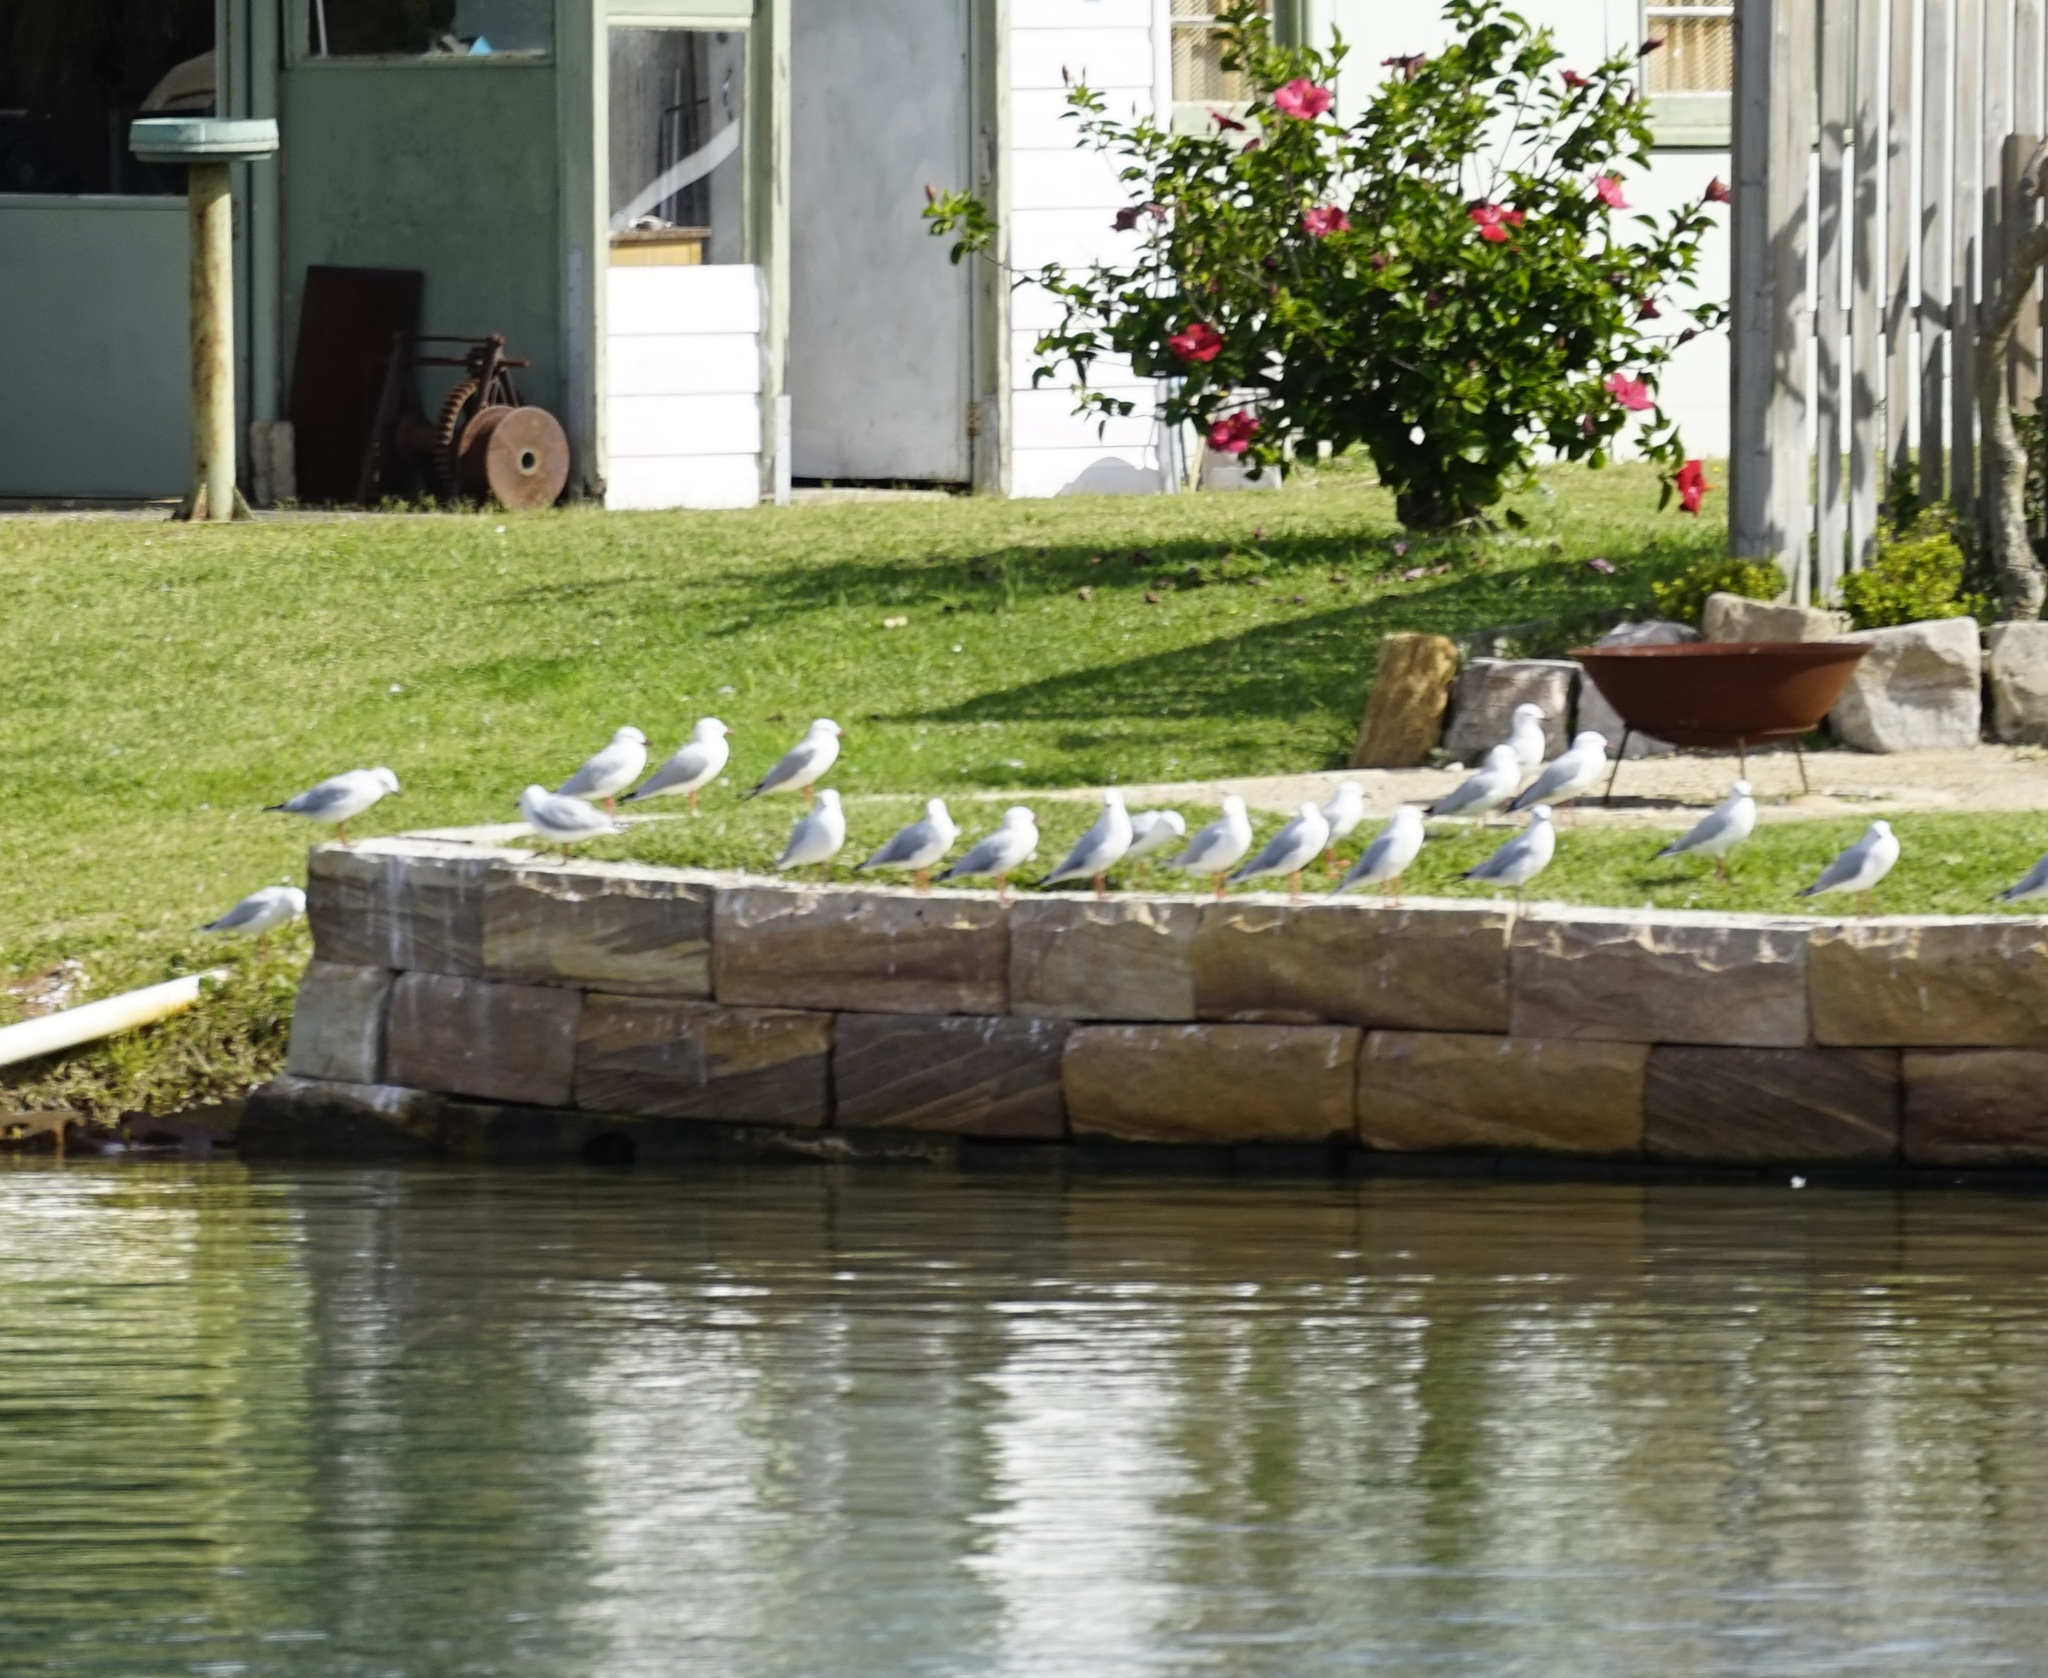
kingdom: Animalia
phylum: Chordata
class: Aves
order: Charadriiformes
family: Laridae
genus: Chroicocephalus
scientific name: Chroicocephalus novaehollandiae
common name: Silver gull
